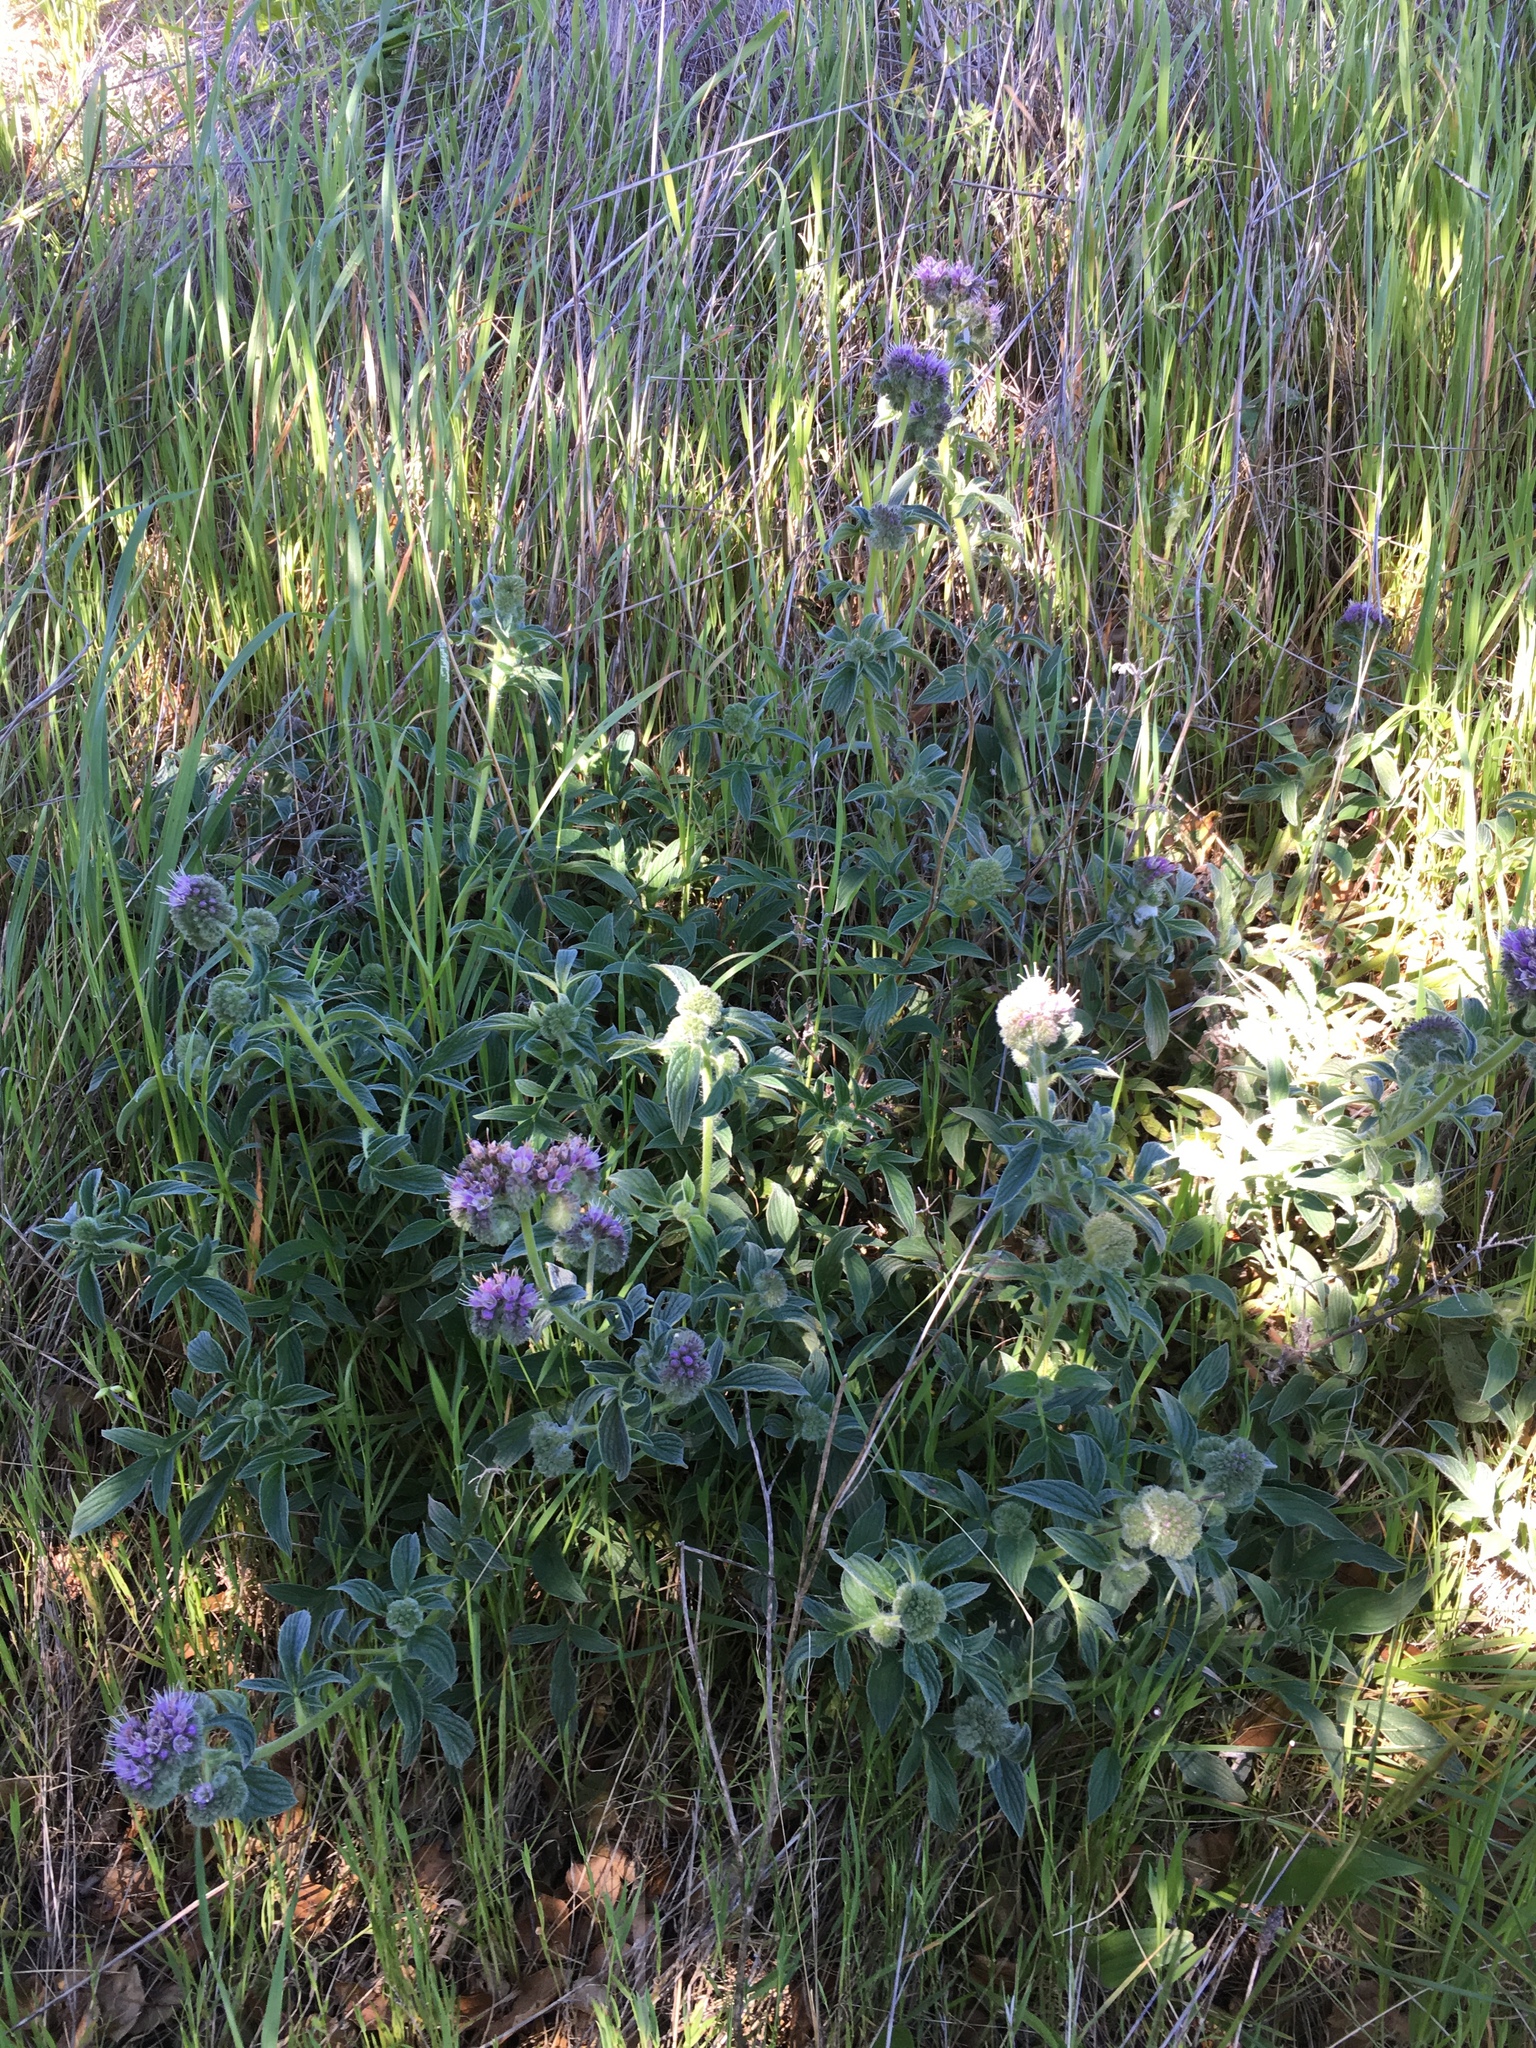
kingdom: Plantae
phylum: Tracheophyta
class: Magnoliopsida
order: Boraginales
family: Hydrophyllaceae
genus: Phacelia
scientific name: Phacelia californica
